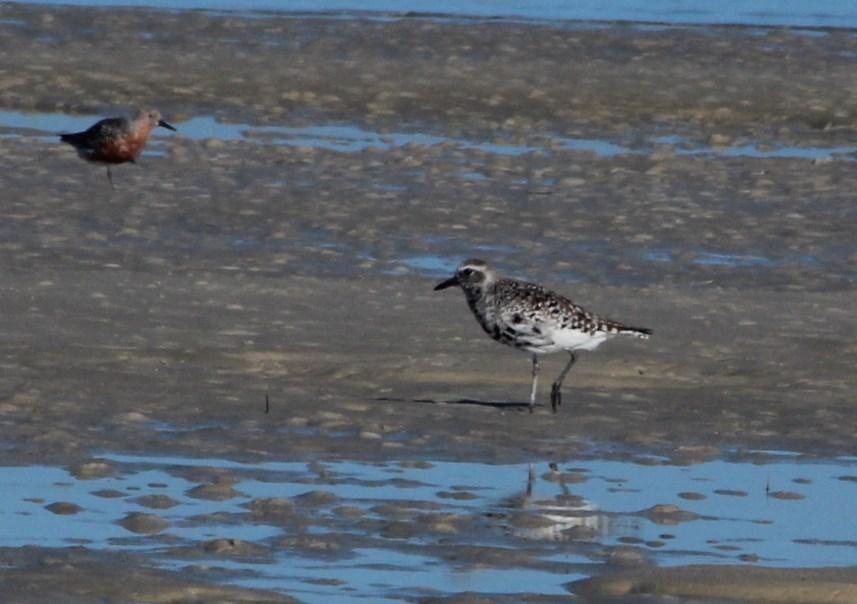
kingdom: Animalia
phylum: Chordata
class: Aves
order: Charadriiformes
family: Charadriidae
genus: Pluvialis
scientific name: Pluvialis squatarola
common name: Grey plover
